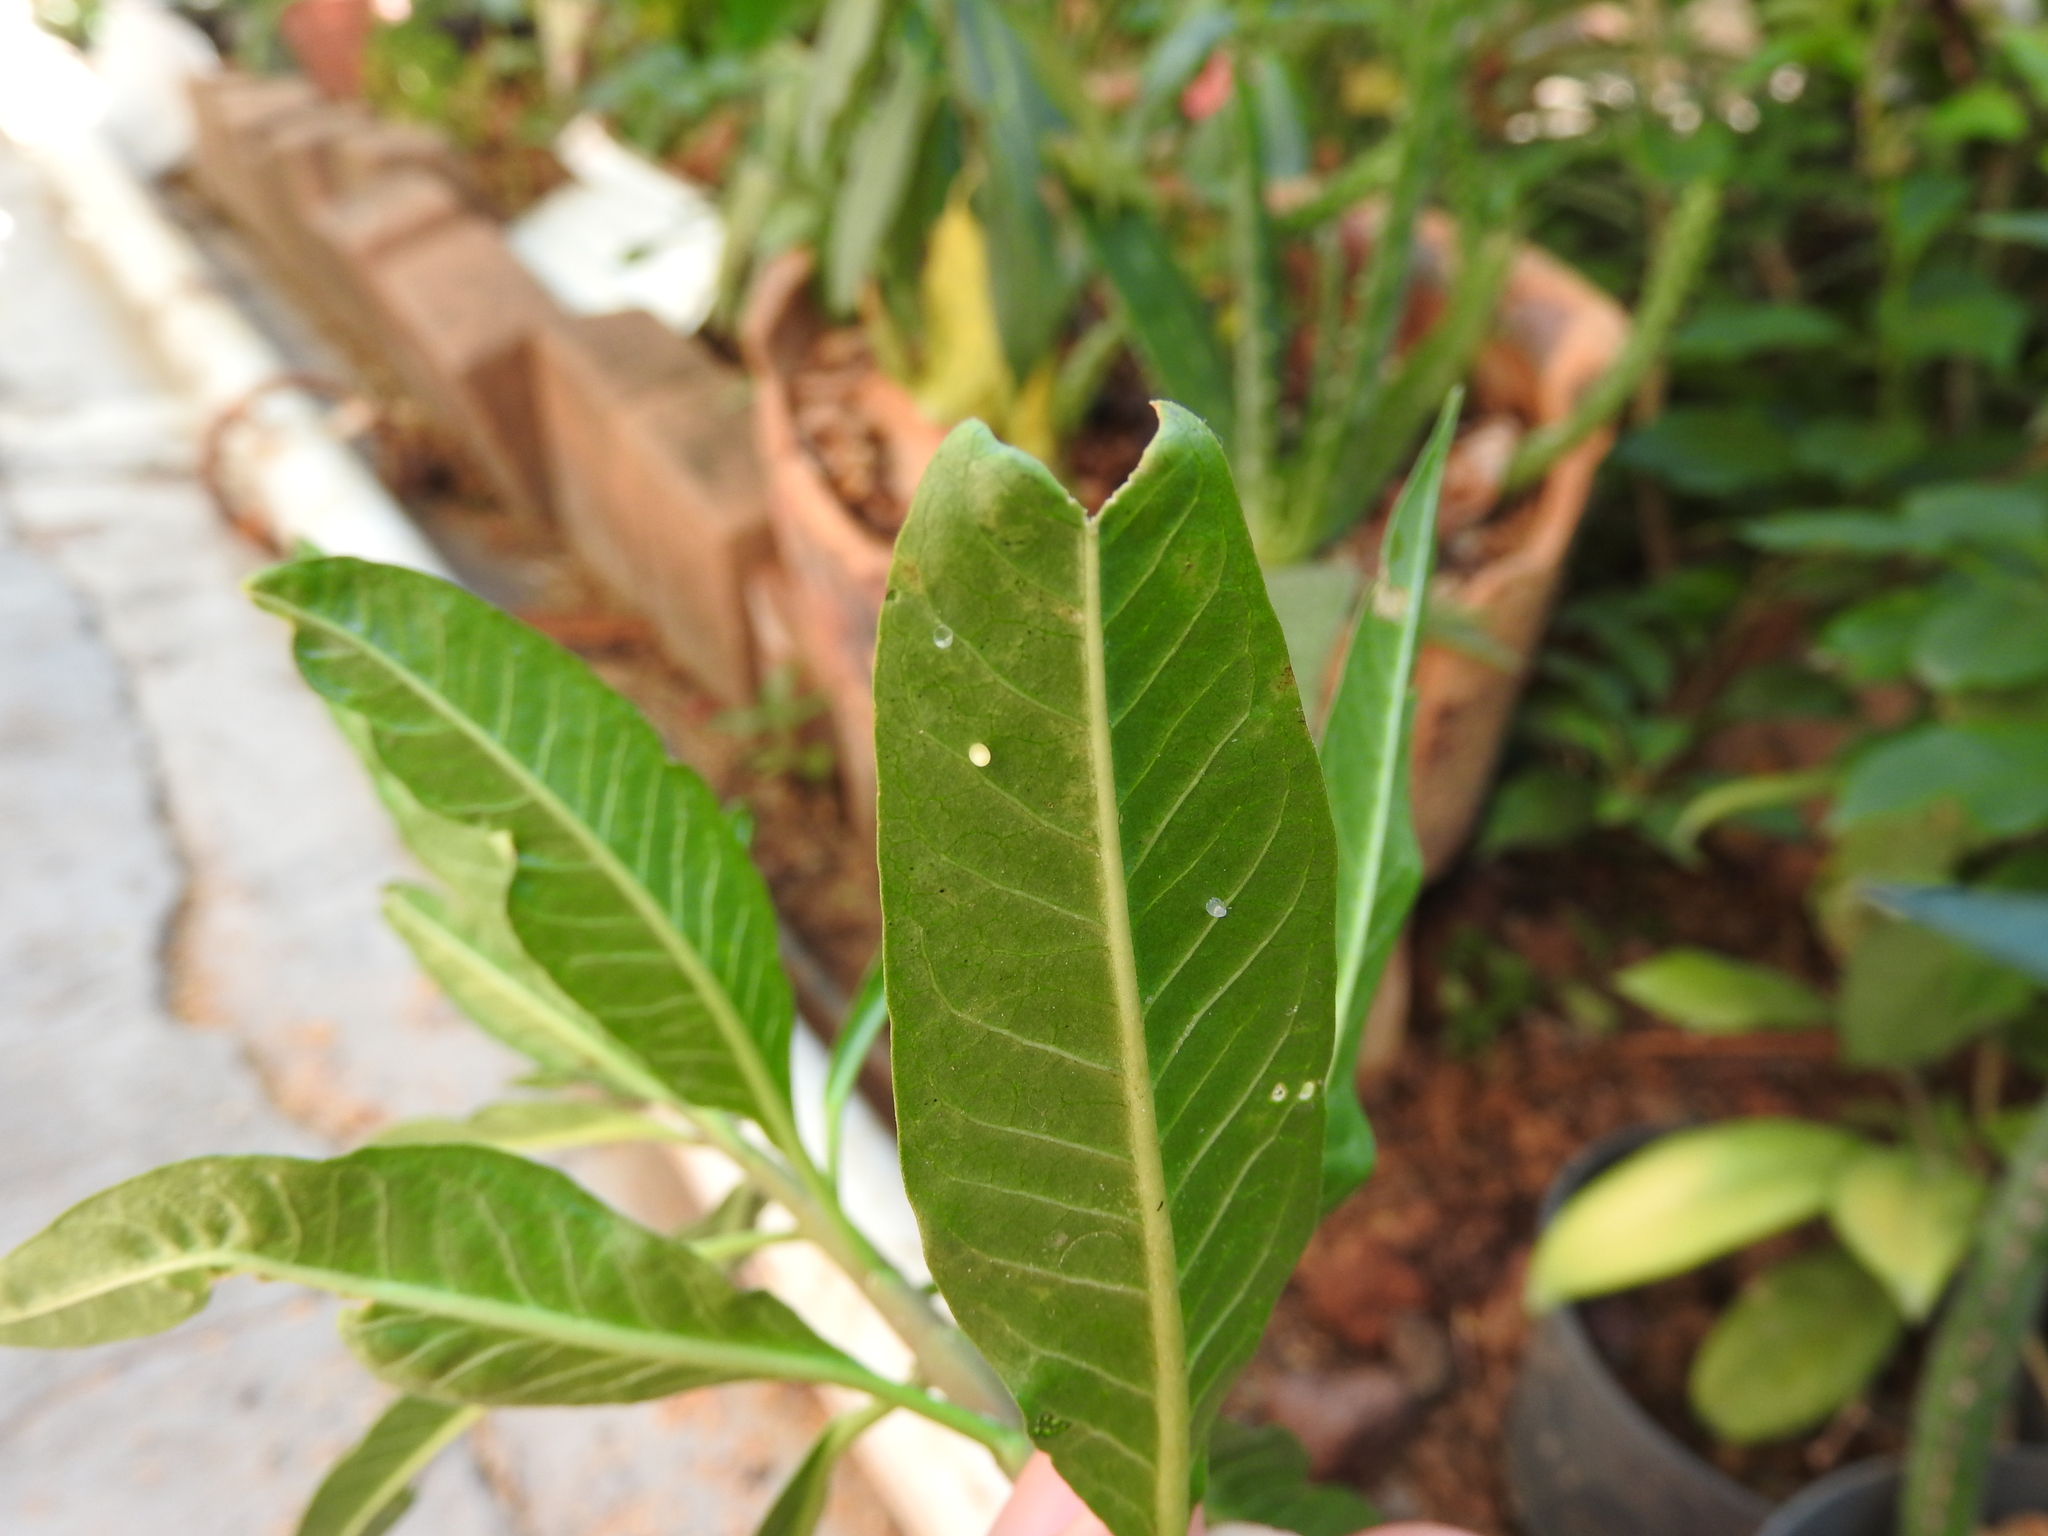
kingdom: Animalia
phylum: Arthropoda
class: Insecta
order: Lepidoptera
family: Nymphalidae
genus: Danaus
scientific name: Danaus plexippus
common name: Monarch
